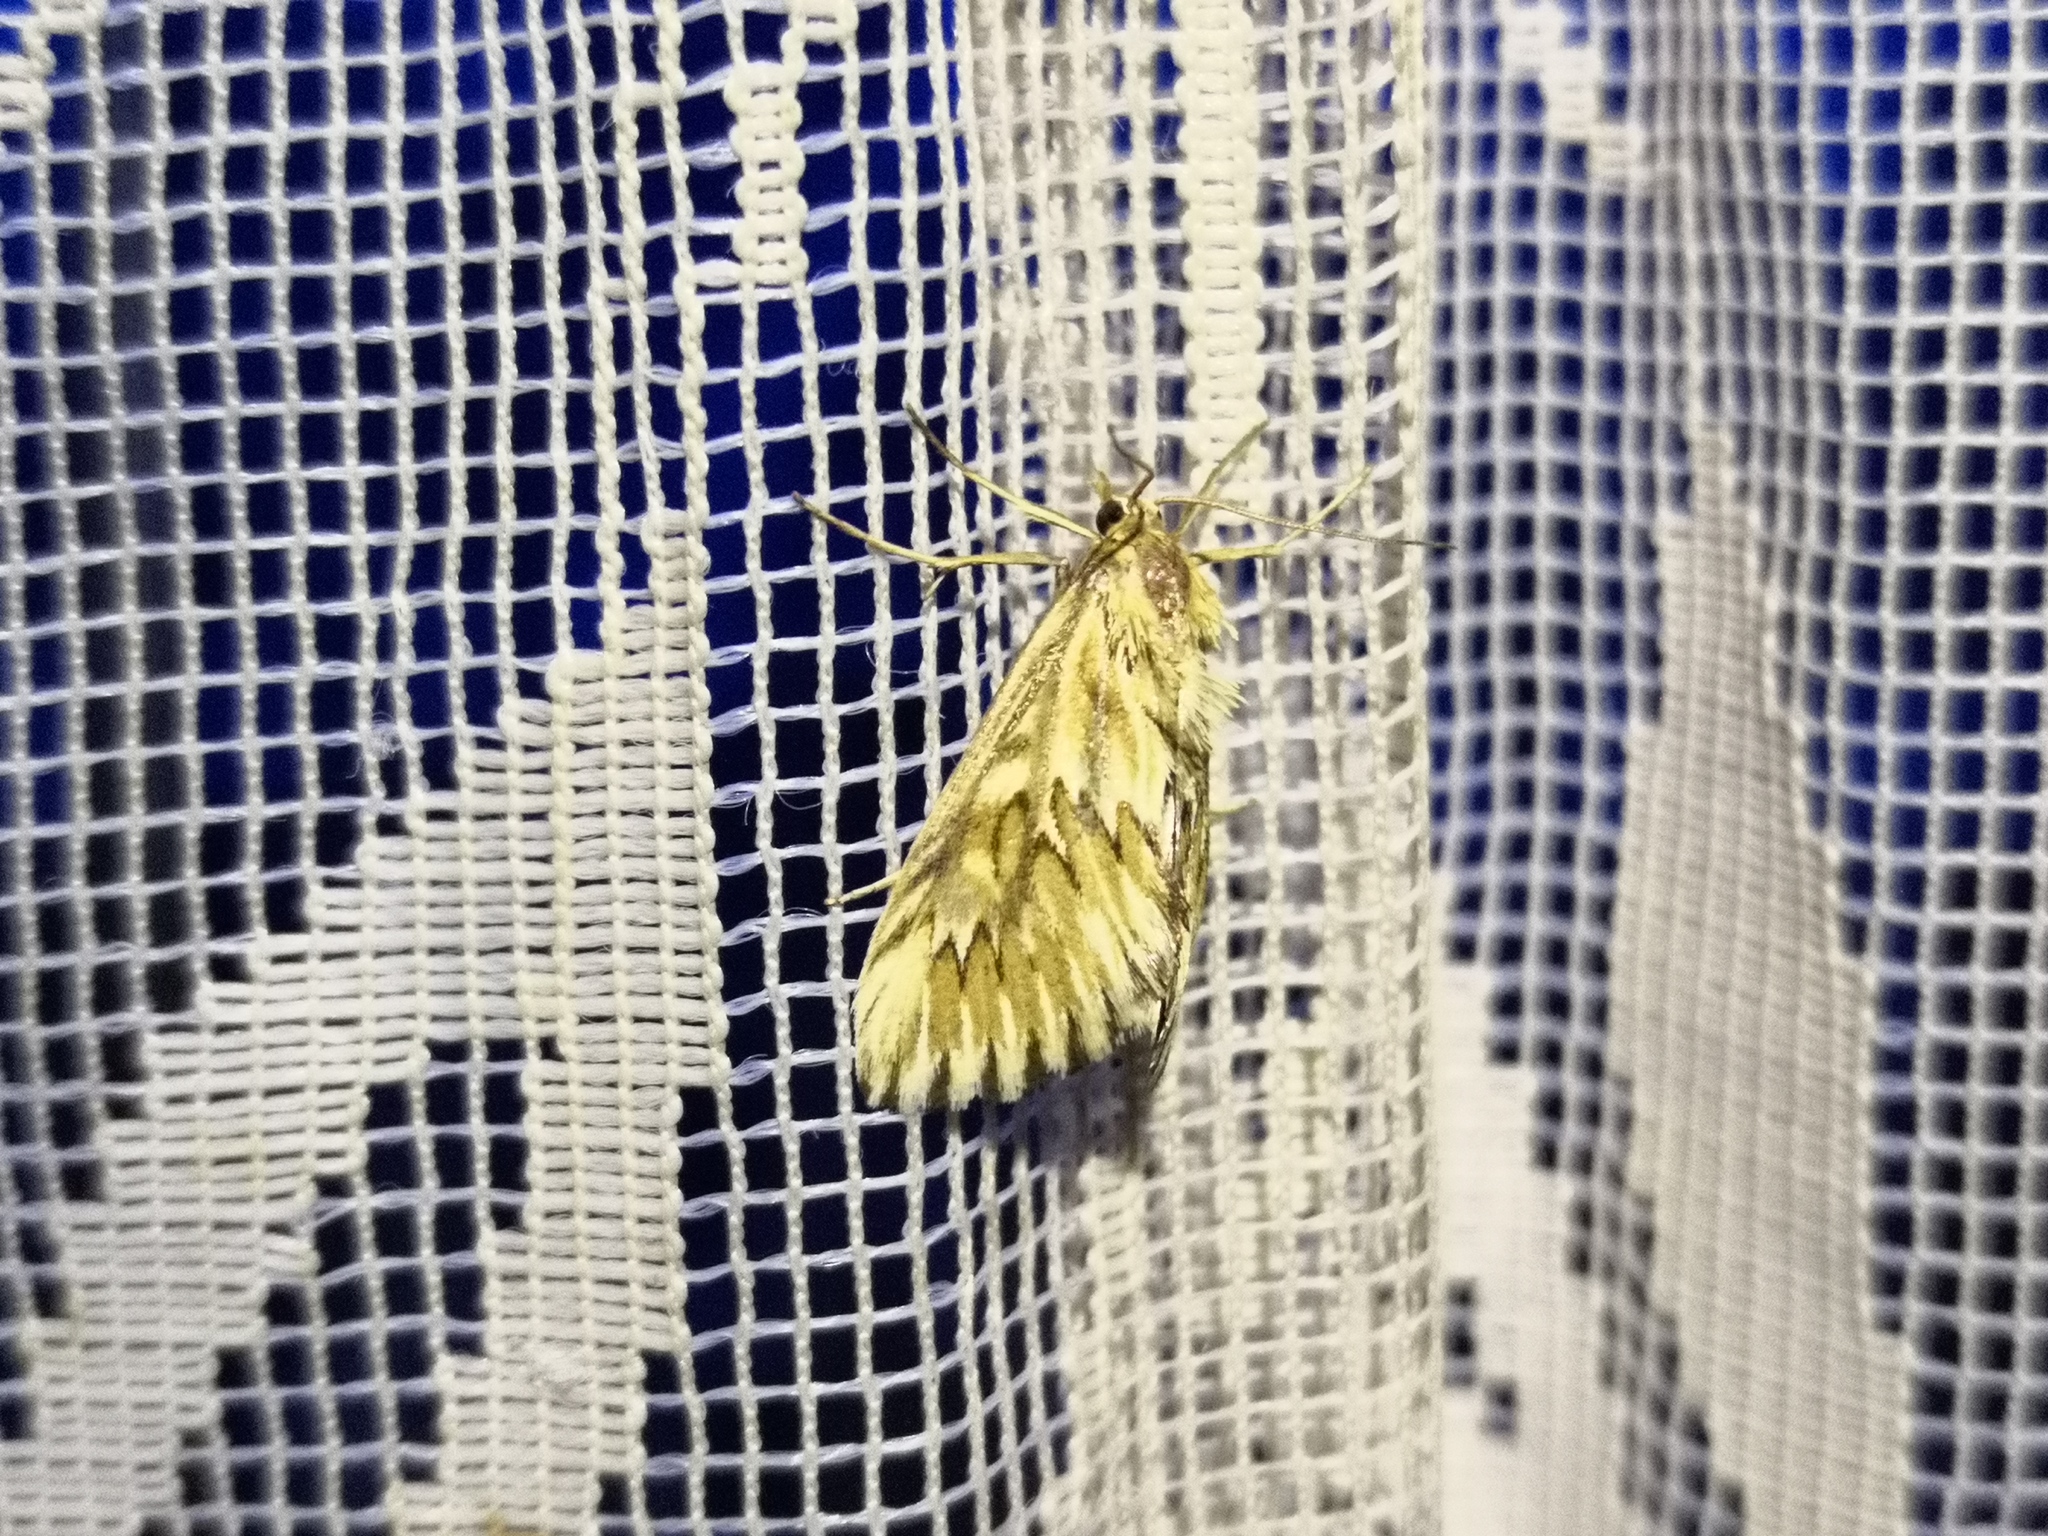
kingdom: Animalia
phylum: Arthropoda
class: Insecta
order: Lepidoptera
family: Crambidae
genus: Cynaeda
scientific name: Cynaeda dentalis
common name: Starry pearl
